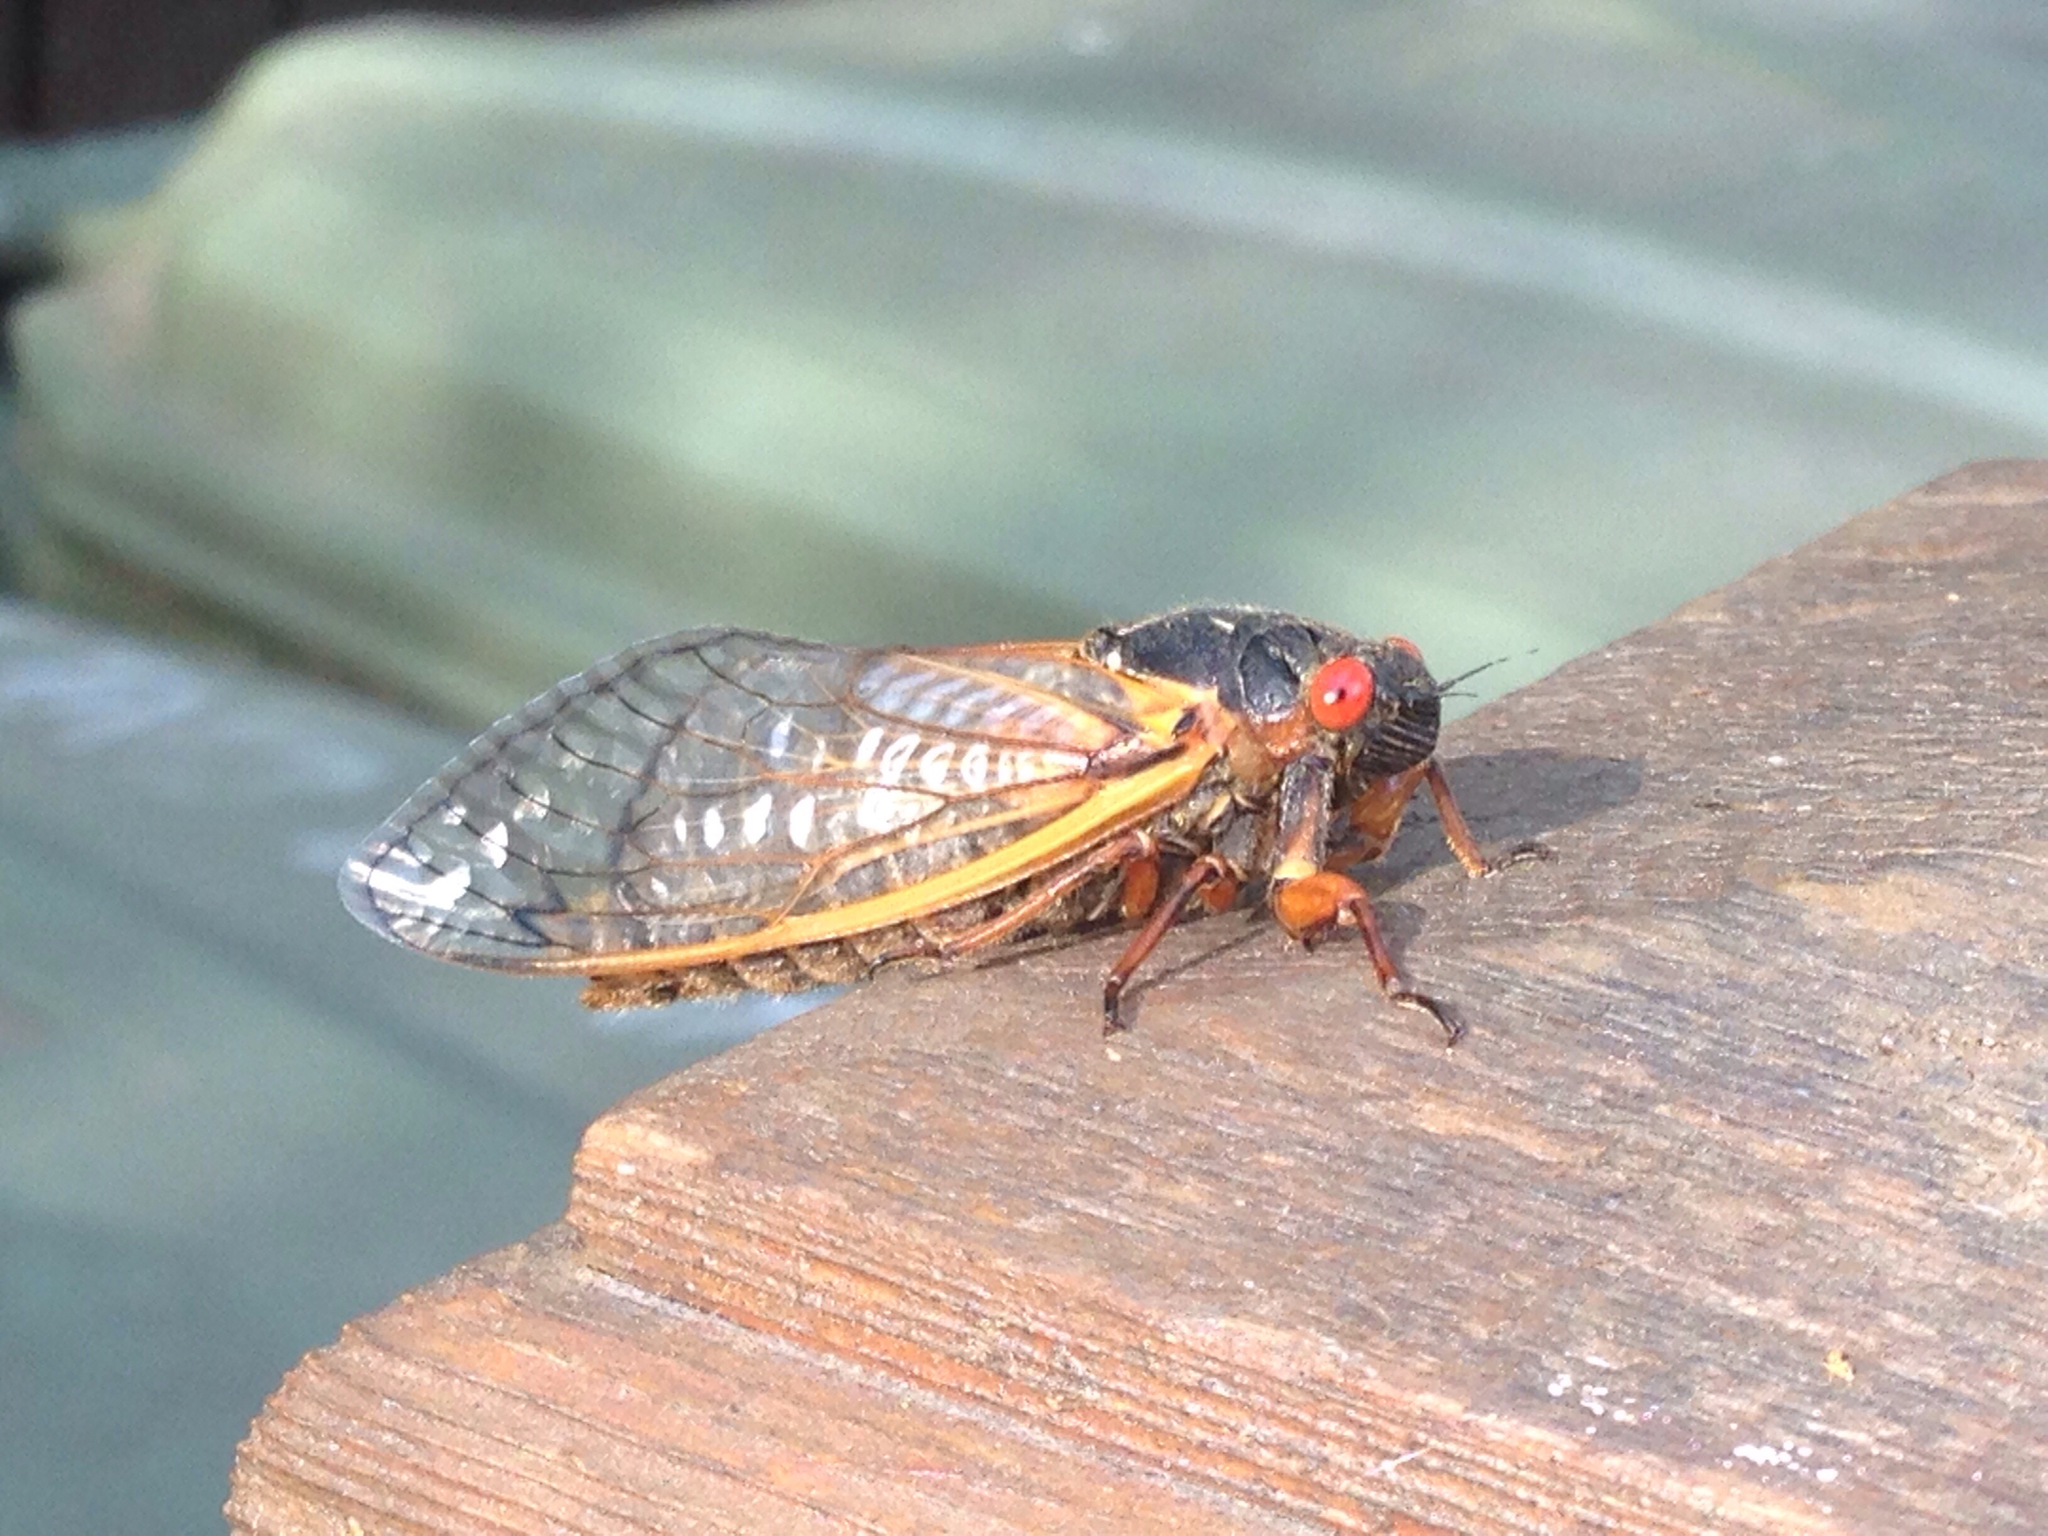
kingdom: Animalia
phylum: Arthropoda
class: Insecta
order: Hemiptera
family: Cicadidae
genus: Magicicada
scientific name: Magicicada septendecim
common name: Periodical cicada
